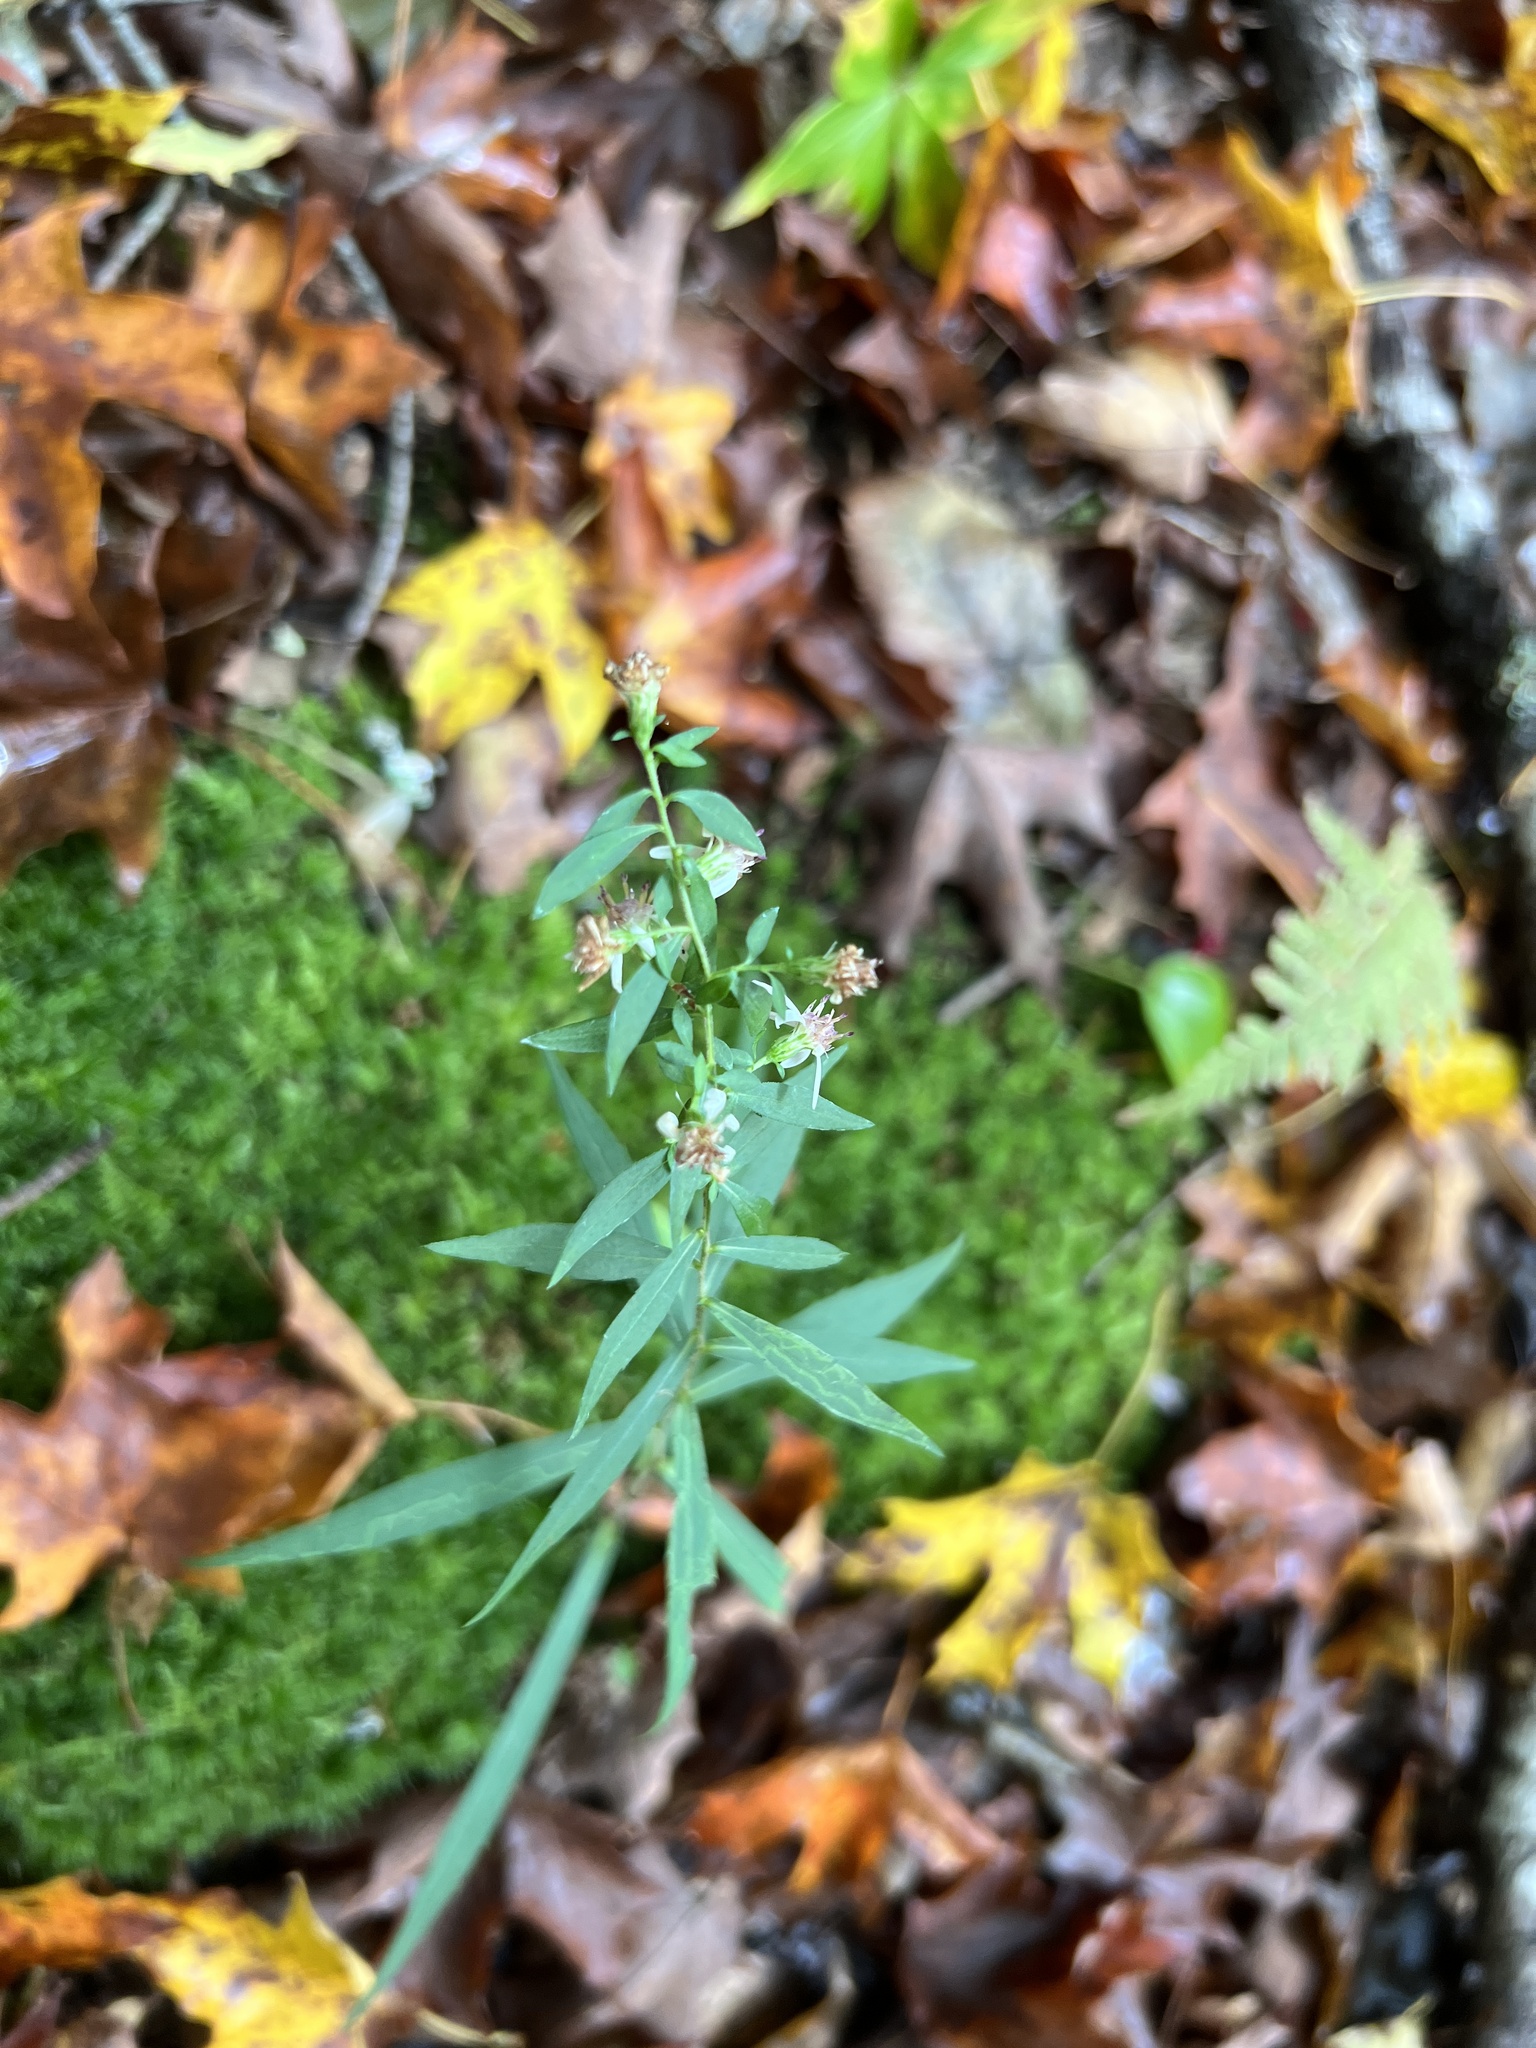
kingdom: Plantae
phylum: Tracheophyta
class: Magnoliopsida
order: Asterales
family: Asteraceae
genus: Symphyotrichum
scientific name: Symphyotrichum lateriflorum
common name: Calico aster
